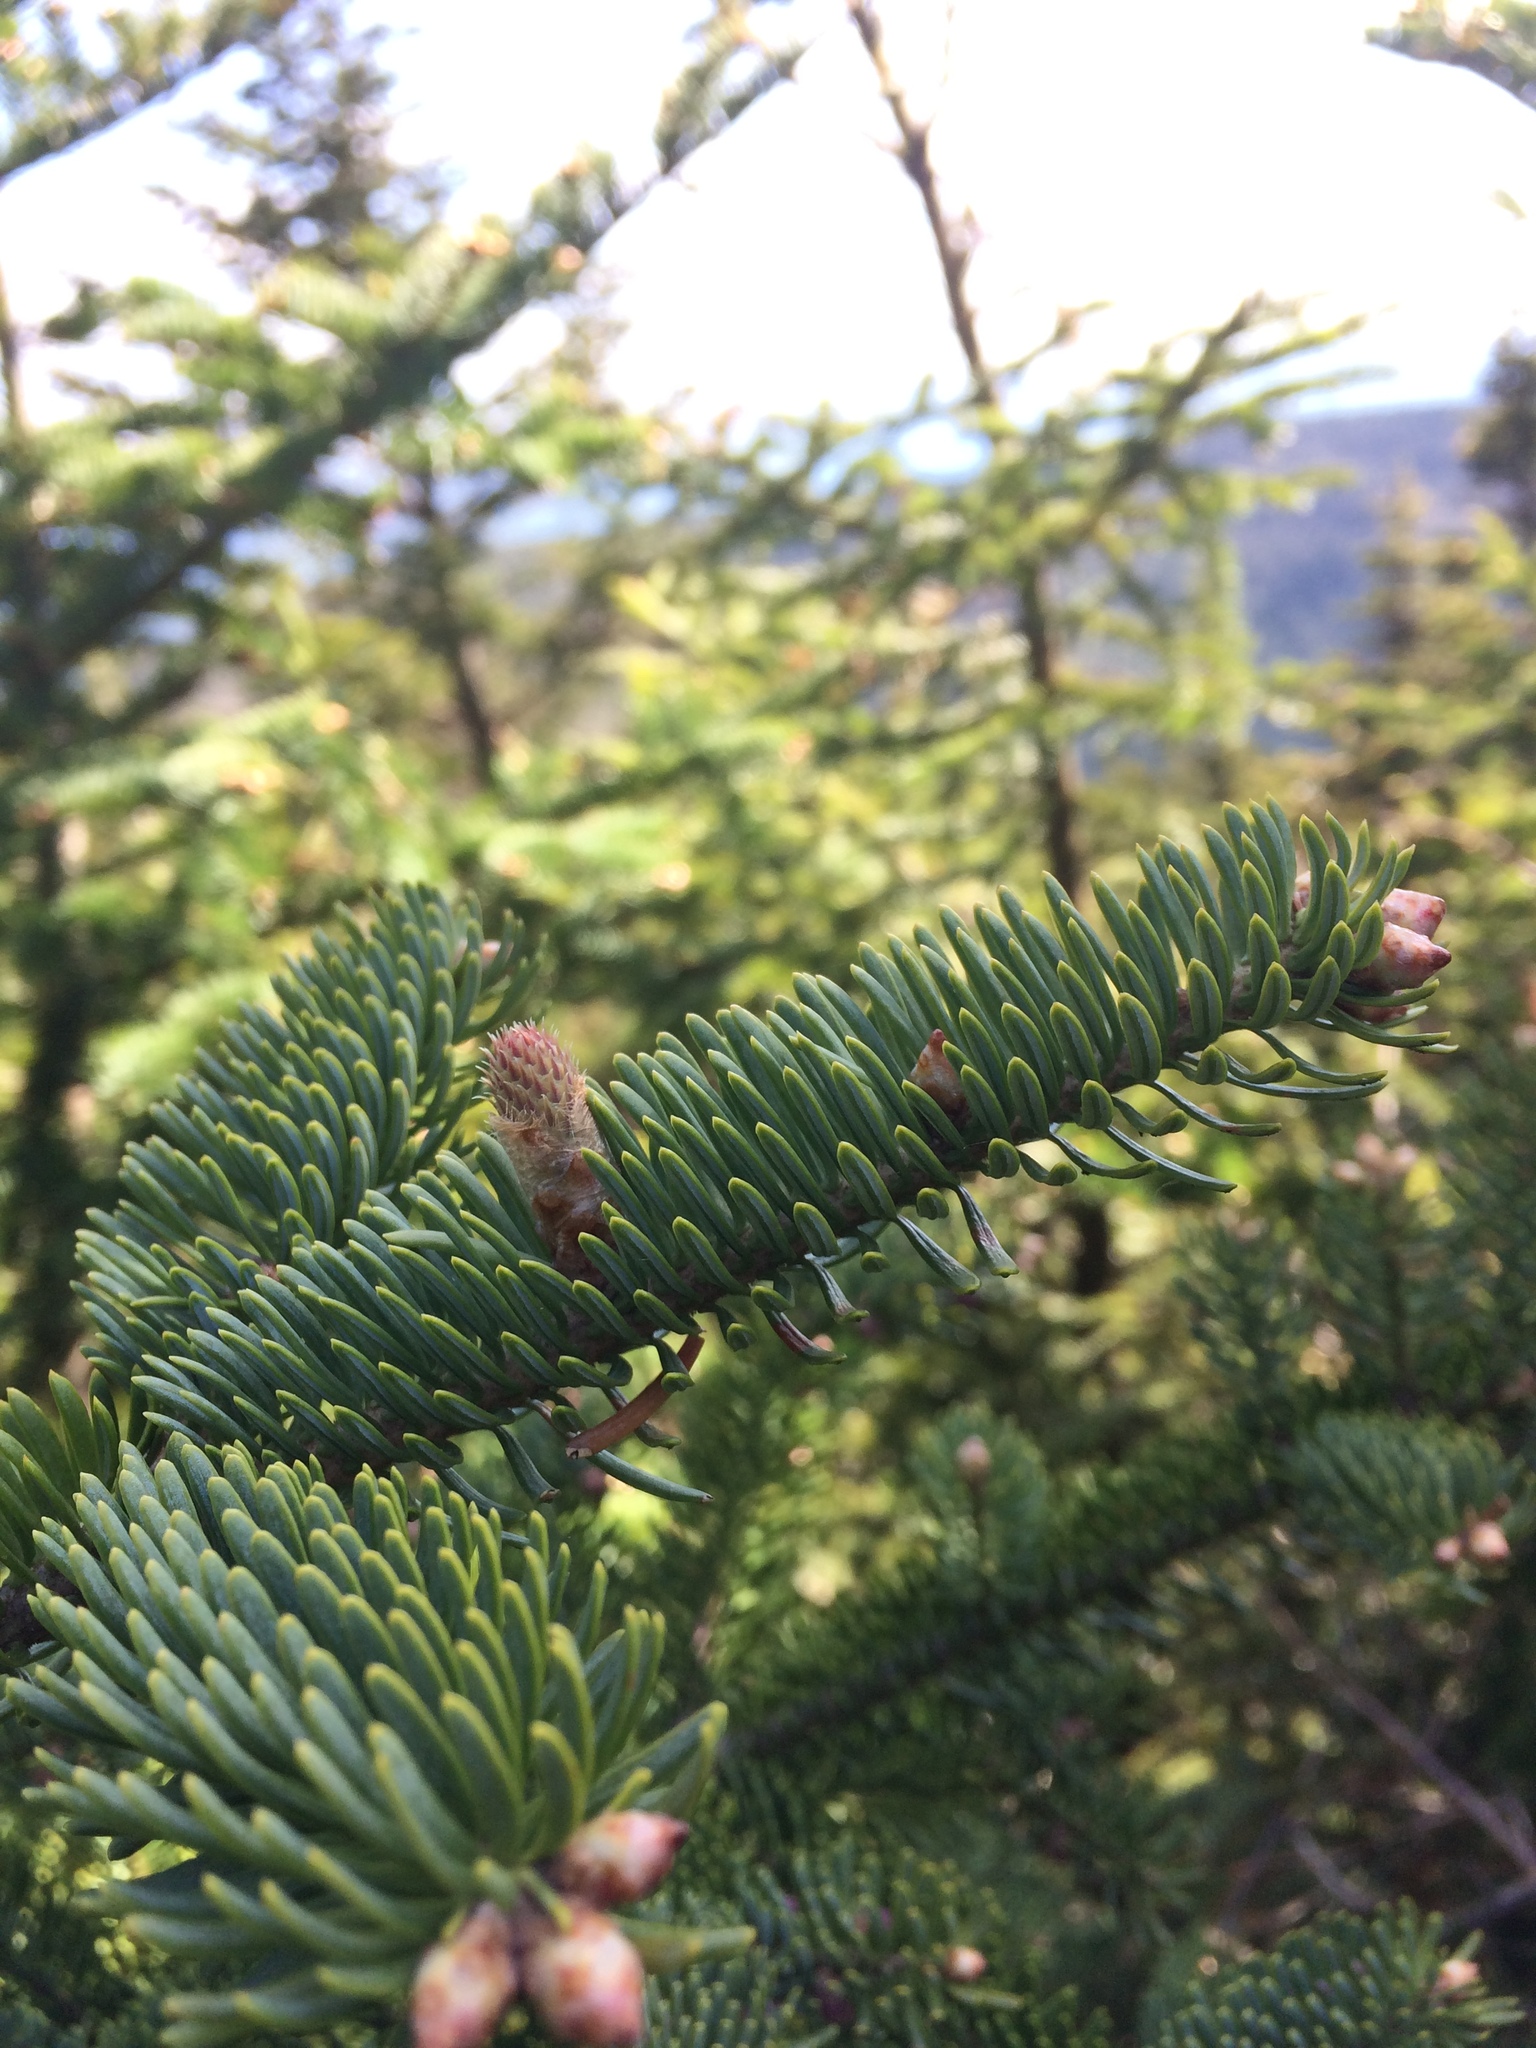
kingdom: Plantae
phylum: Tracheophyta
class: Pinopsida
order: Pinales
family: Pinaceae
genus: Abies
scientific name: Abies balsamea
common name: Balsam fir
